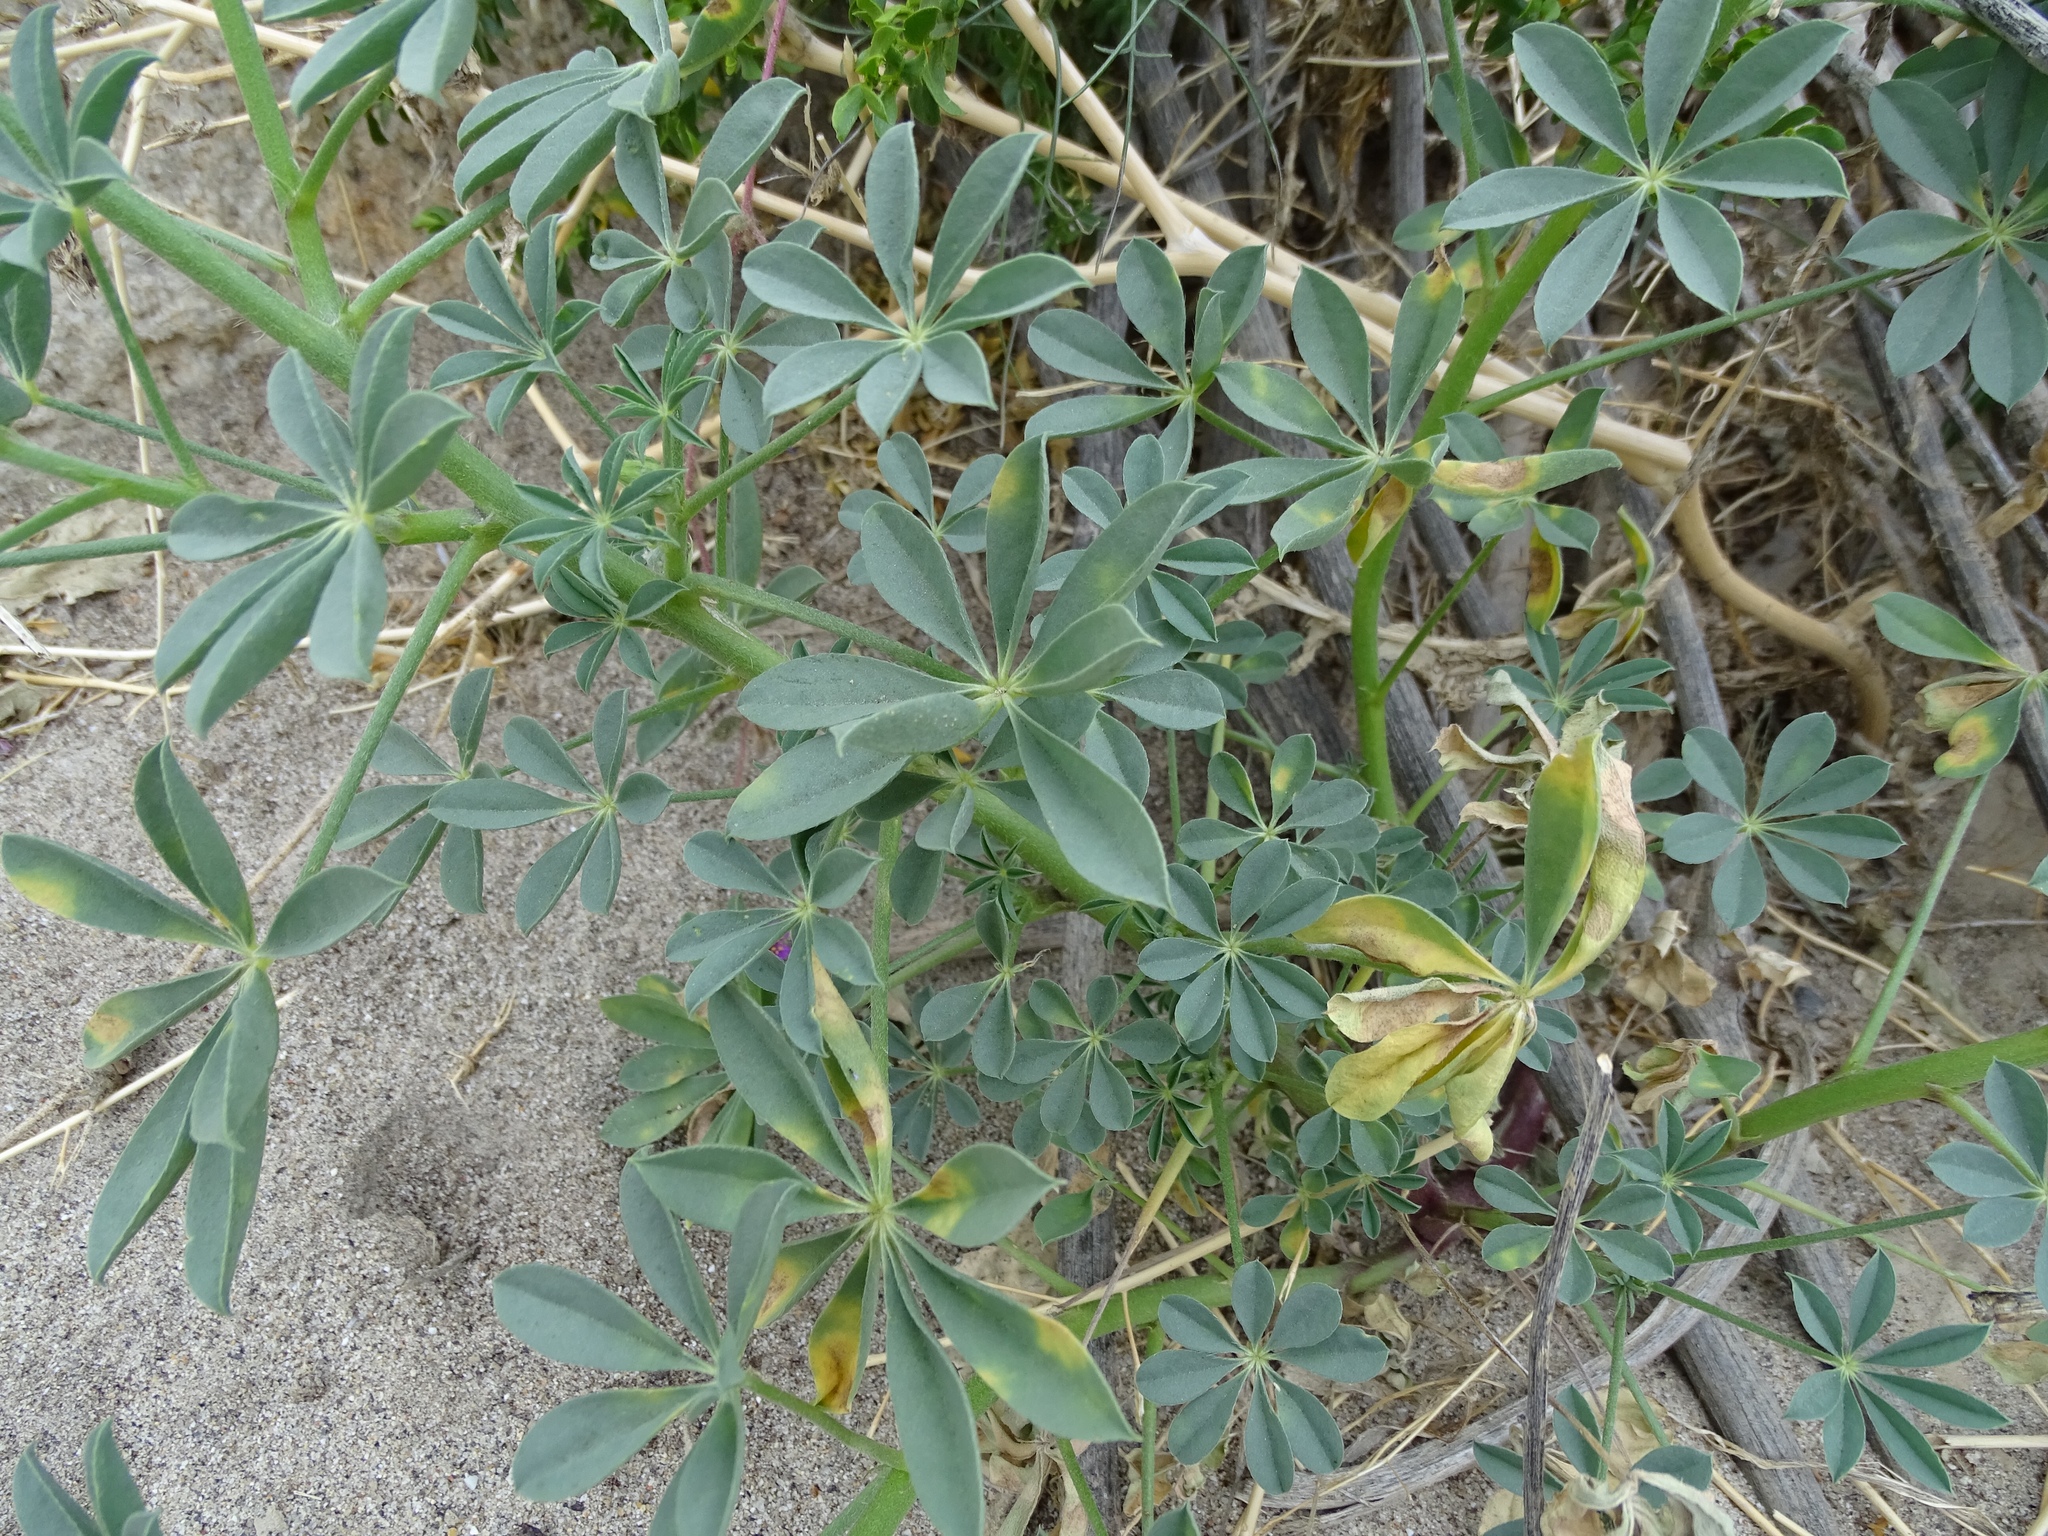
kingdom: Plantae
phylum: Tracheophyta
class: Magnoliopsida
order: Fabales
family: Fabaceae
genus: Lupinus
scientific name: Lupinus arizonicus
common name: Arizona lupine
